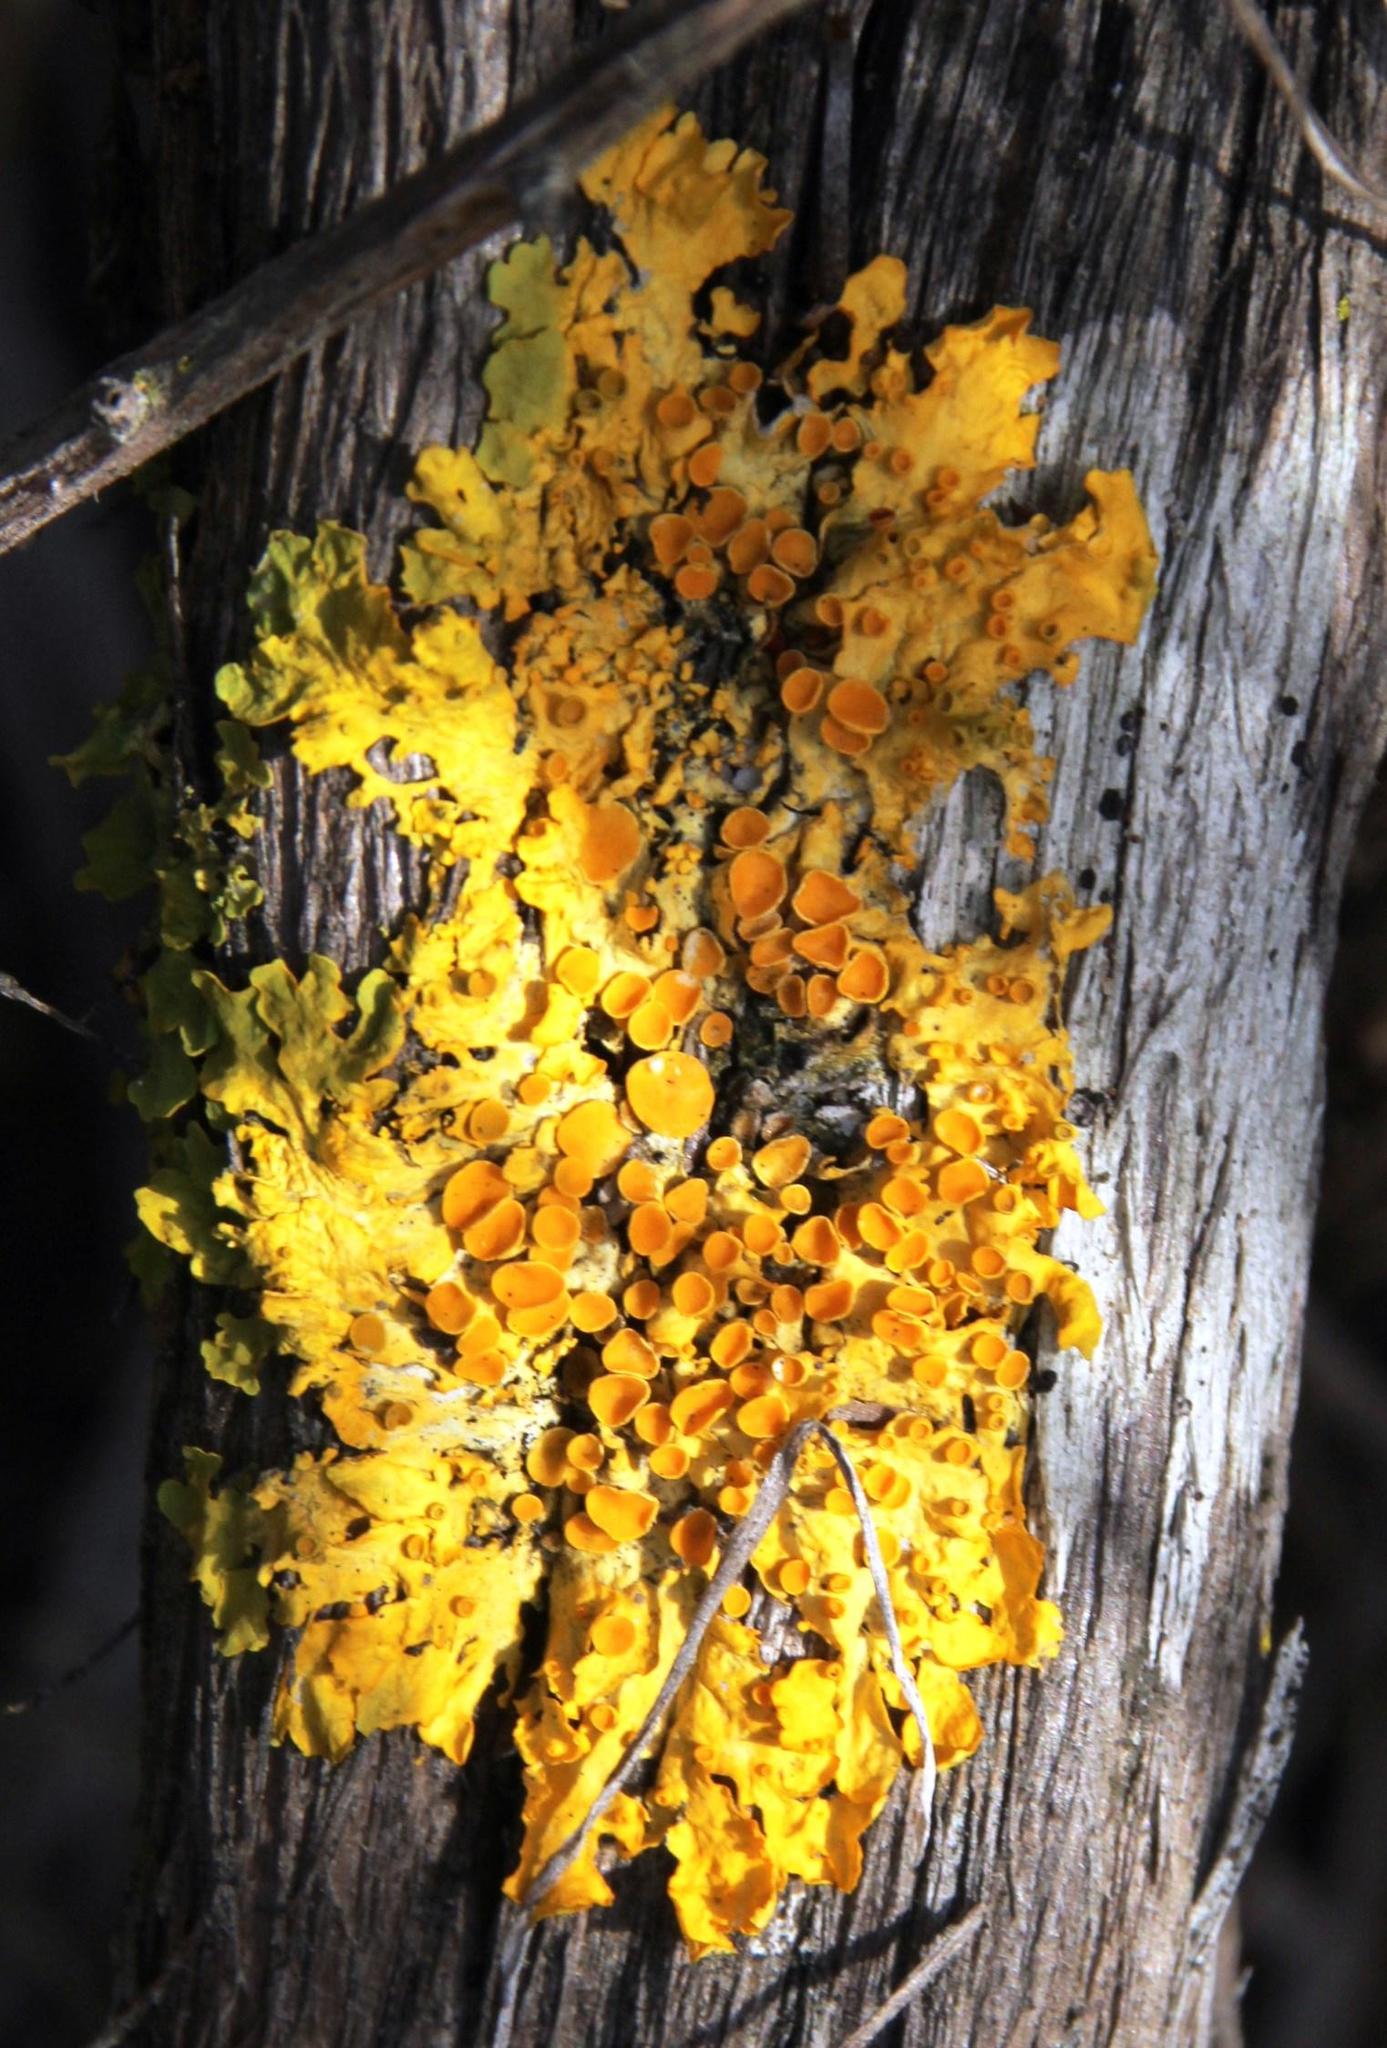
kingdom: Fungi
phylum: Ascomycota
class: Lecanoromycetes
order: Teloschistales
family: Teloschistaceae
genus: Xanthoria
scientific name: Xanthoria parietina
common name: Common orange lichen
